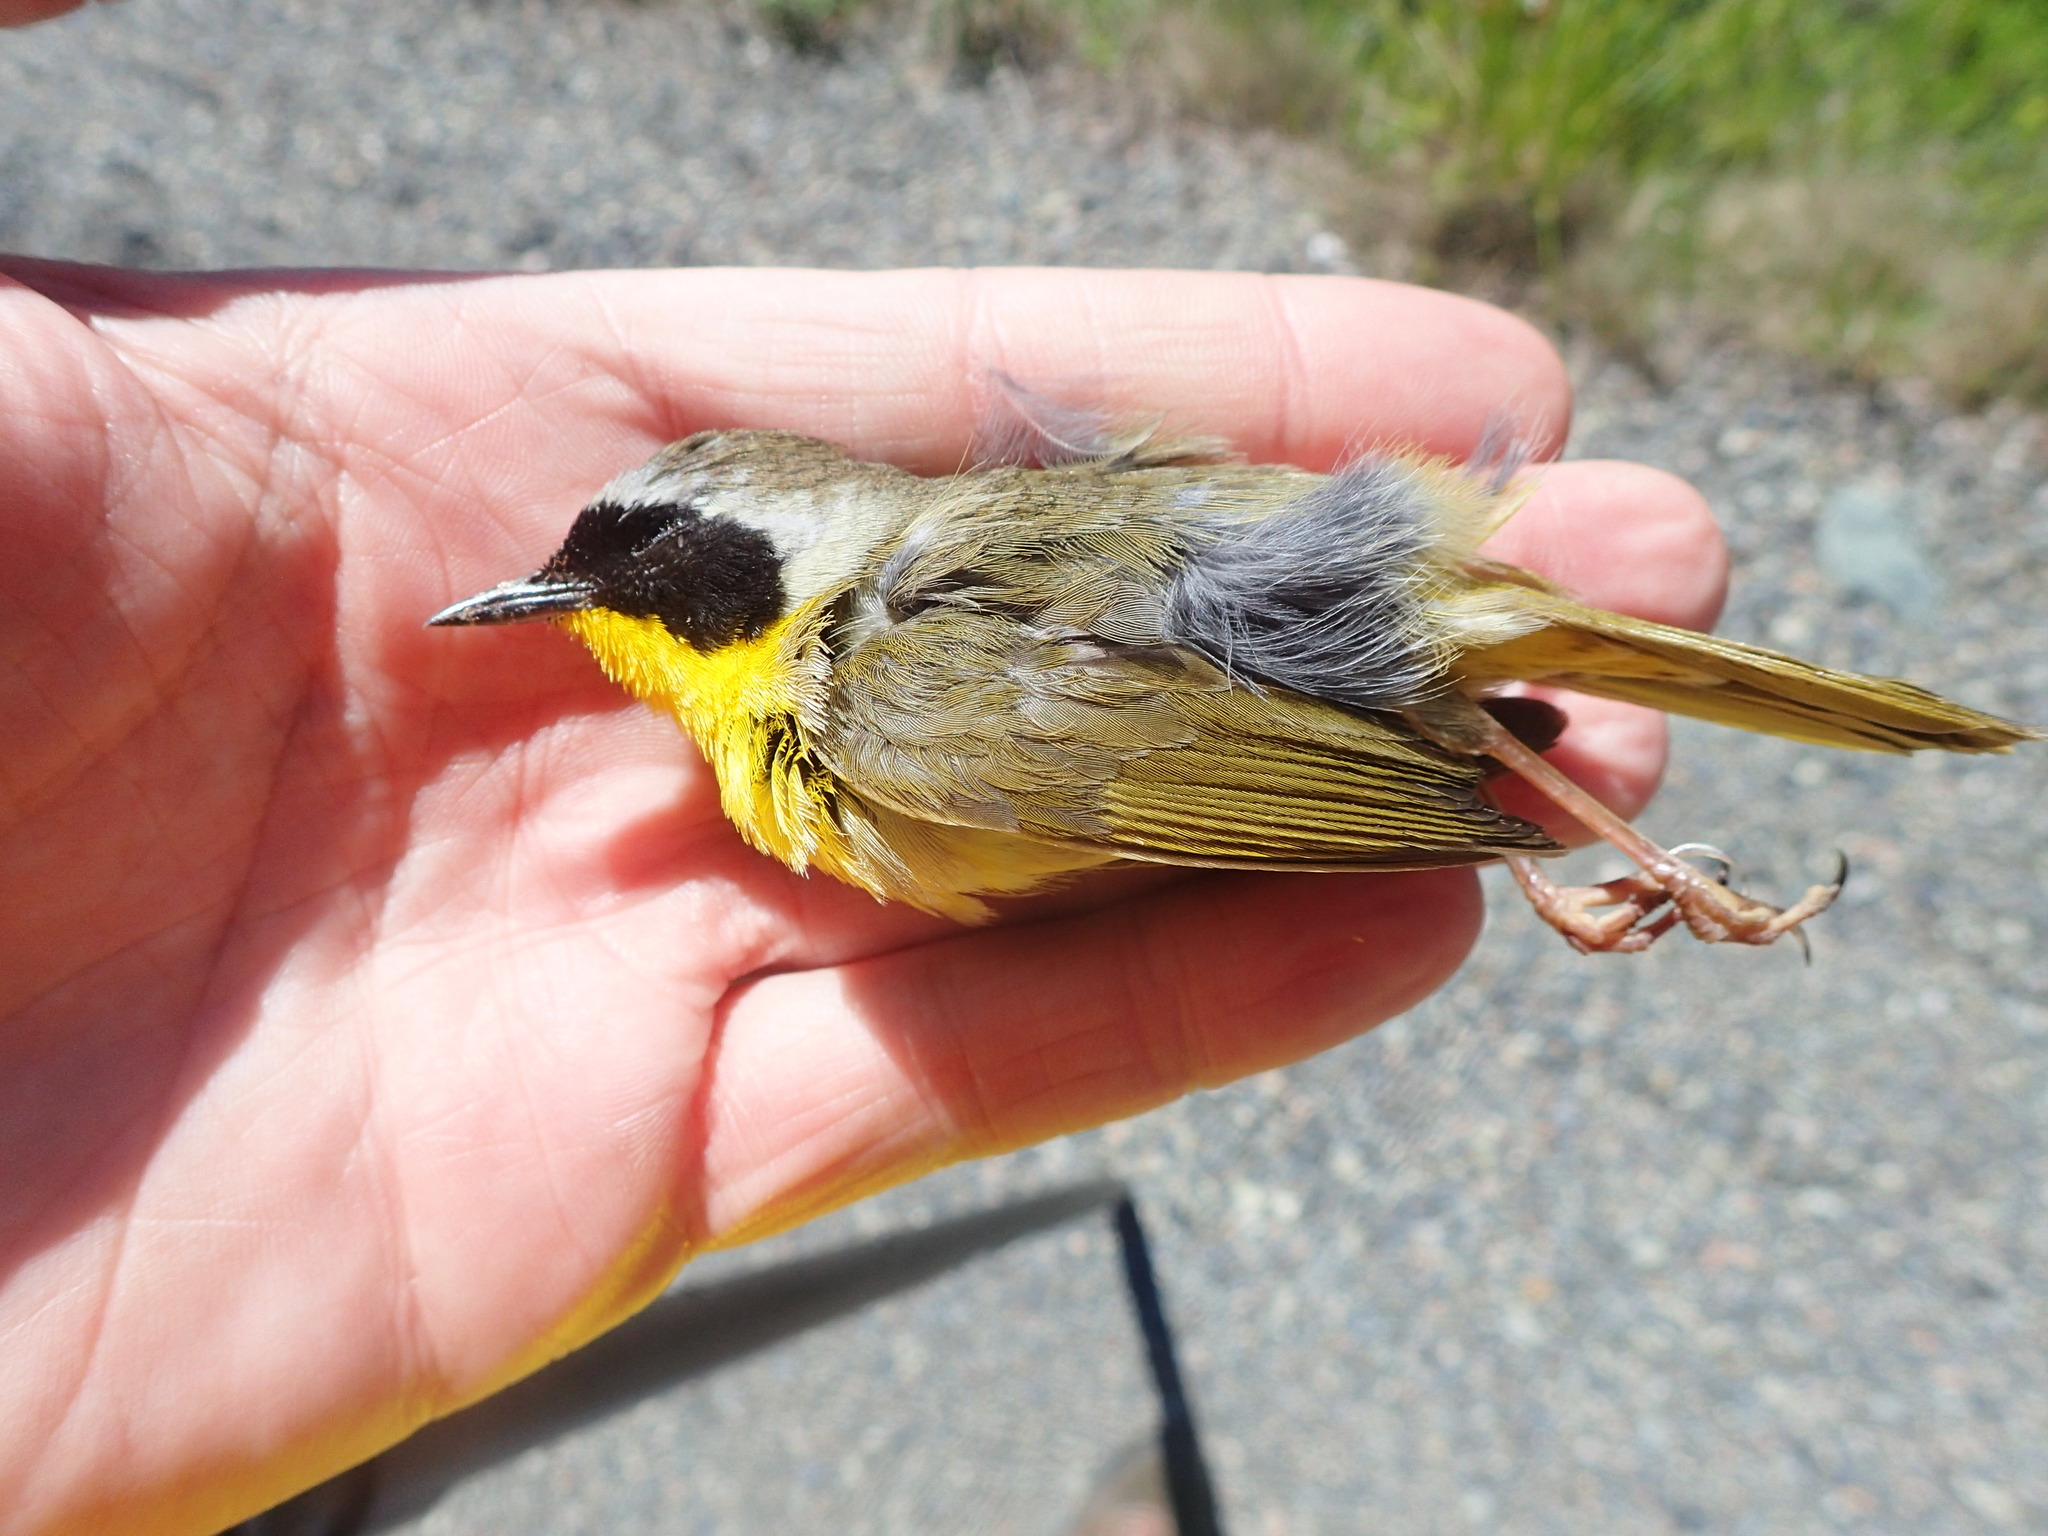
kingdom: Animalia
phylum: Chordata
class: Aves
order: Passeriformes
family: Parulidae
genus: Geothlypis
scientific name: Geothlypis trichas
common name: Common yellowthroat
